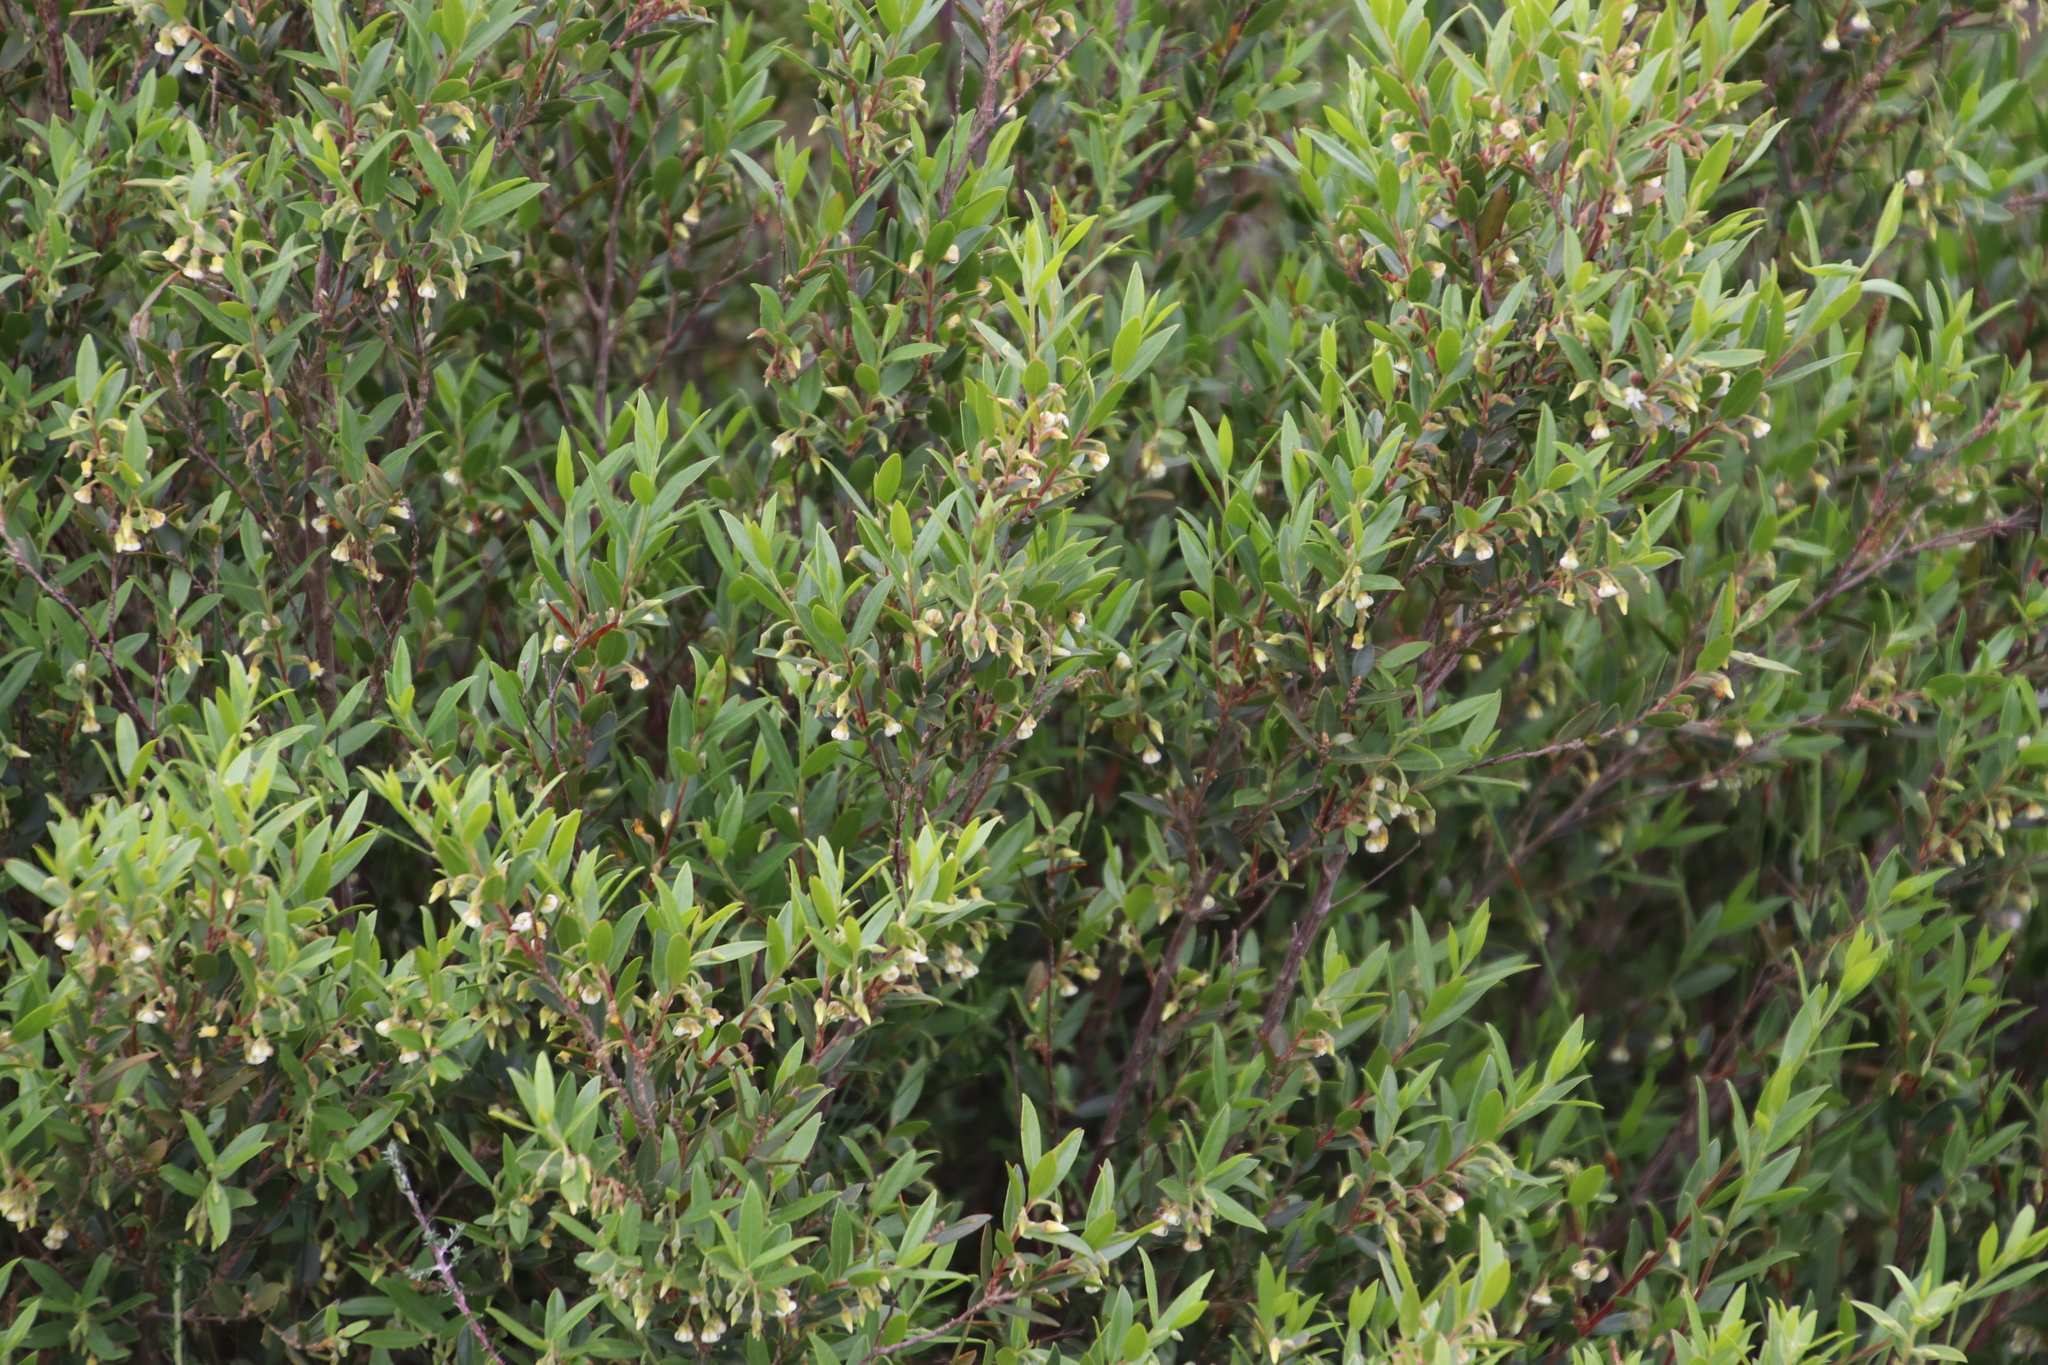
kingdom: Plantae
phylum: Tracheophyta
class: Magnoliopsida
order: Ericales
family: Ebenaceae
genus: Diospyros
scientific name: Diospyros glabra
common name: Fynbos star apple
